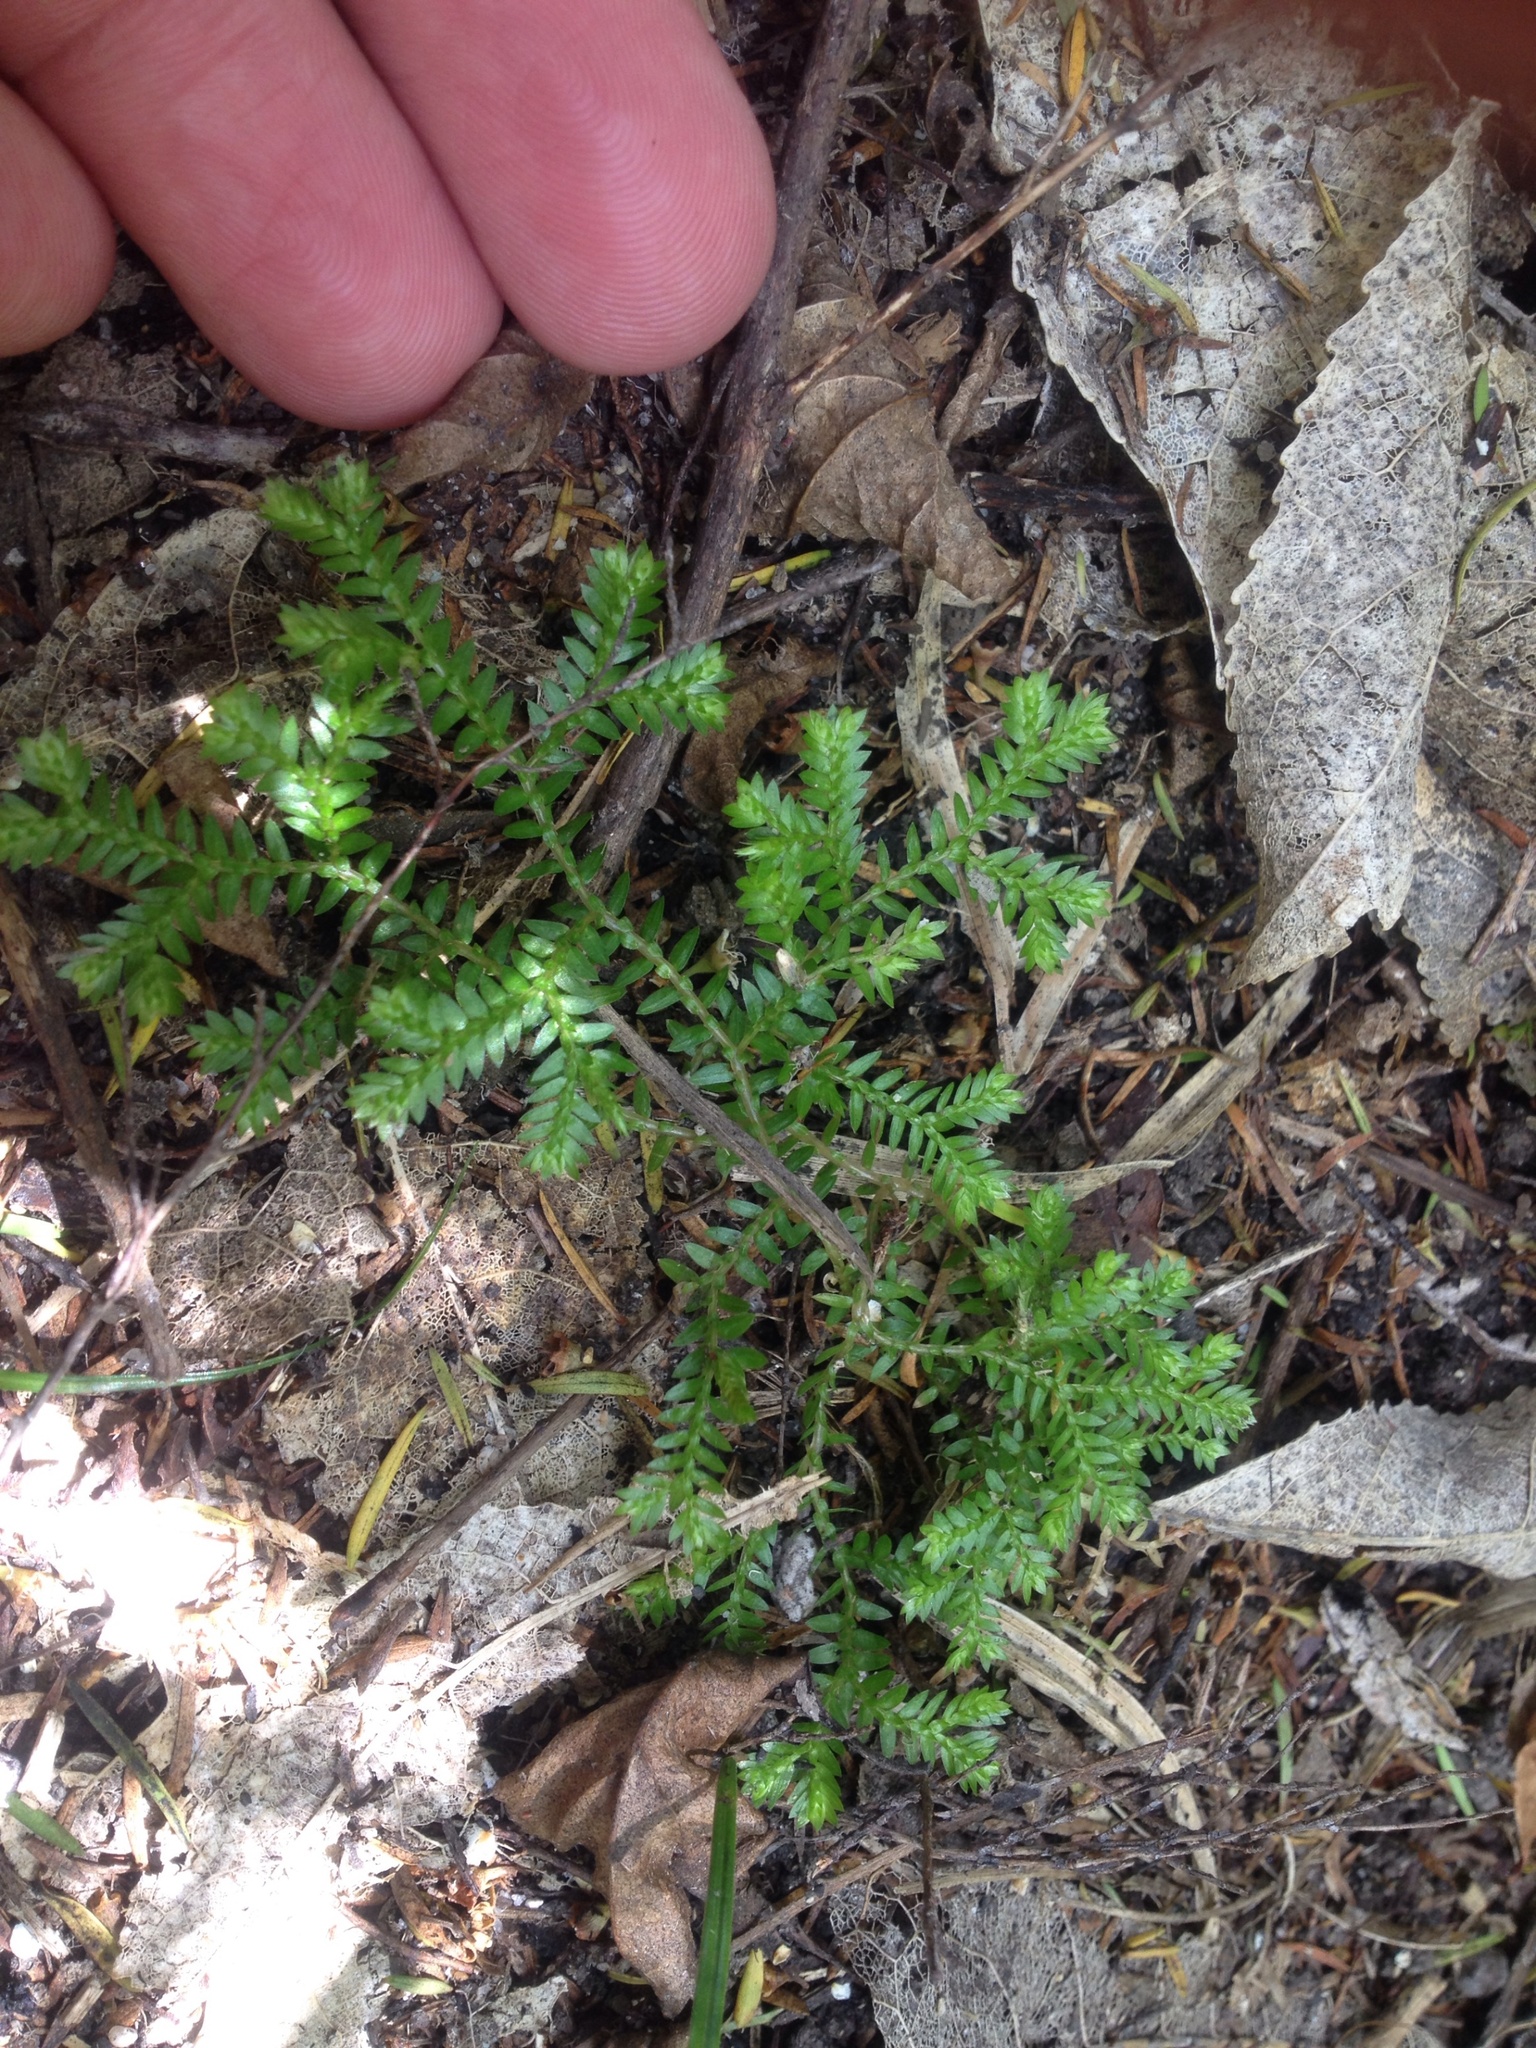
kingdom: Plantae
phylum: Tracheophyta
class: Lycopodiopsida
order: Selaginellales
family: Selaginellaceae
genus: Selaginella
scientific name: Selaginella kraussiana
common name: Krauss' spikemoss
